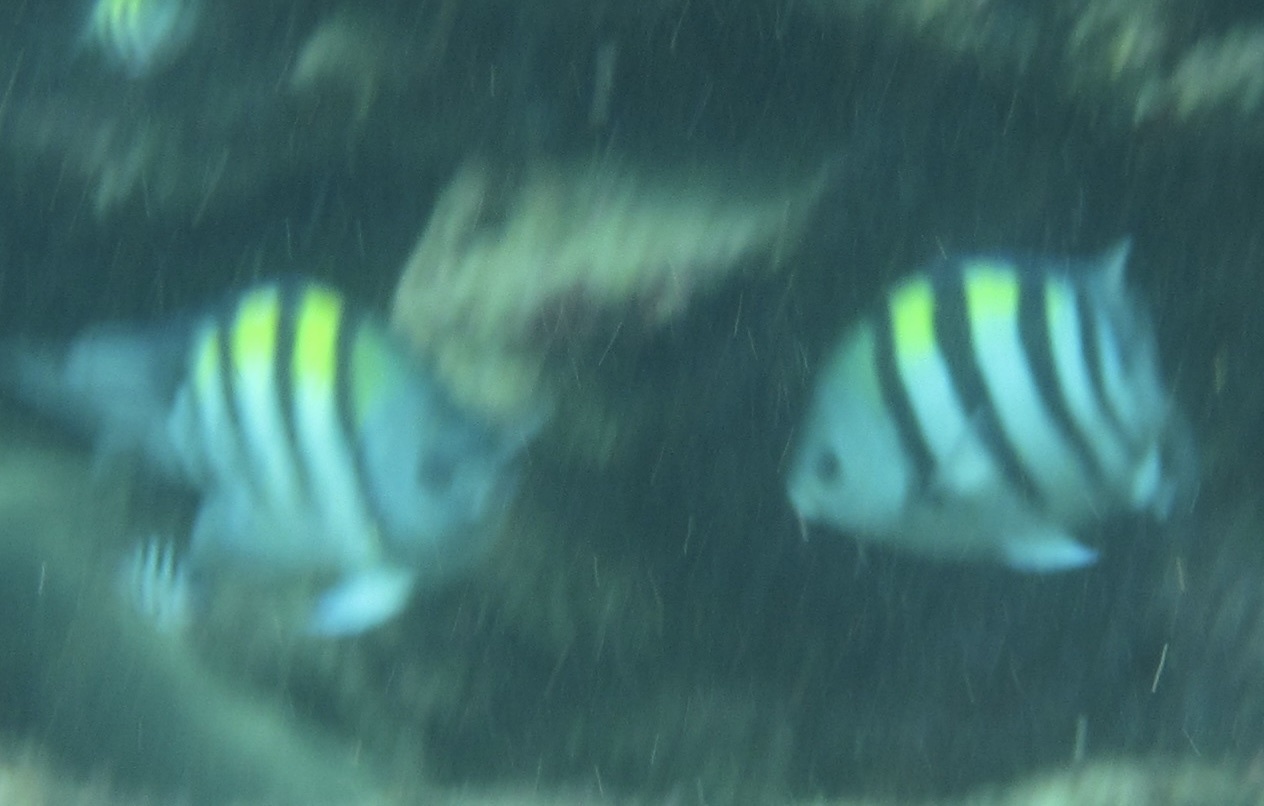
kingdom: Animalia
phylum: Chordata
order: Perciformes
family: Pomacentridae
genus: Abudefduf
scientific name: Abudefduf vaigiensis
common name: Indo-pacific sergeant
